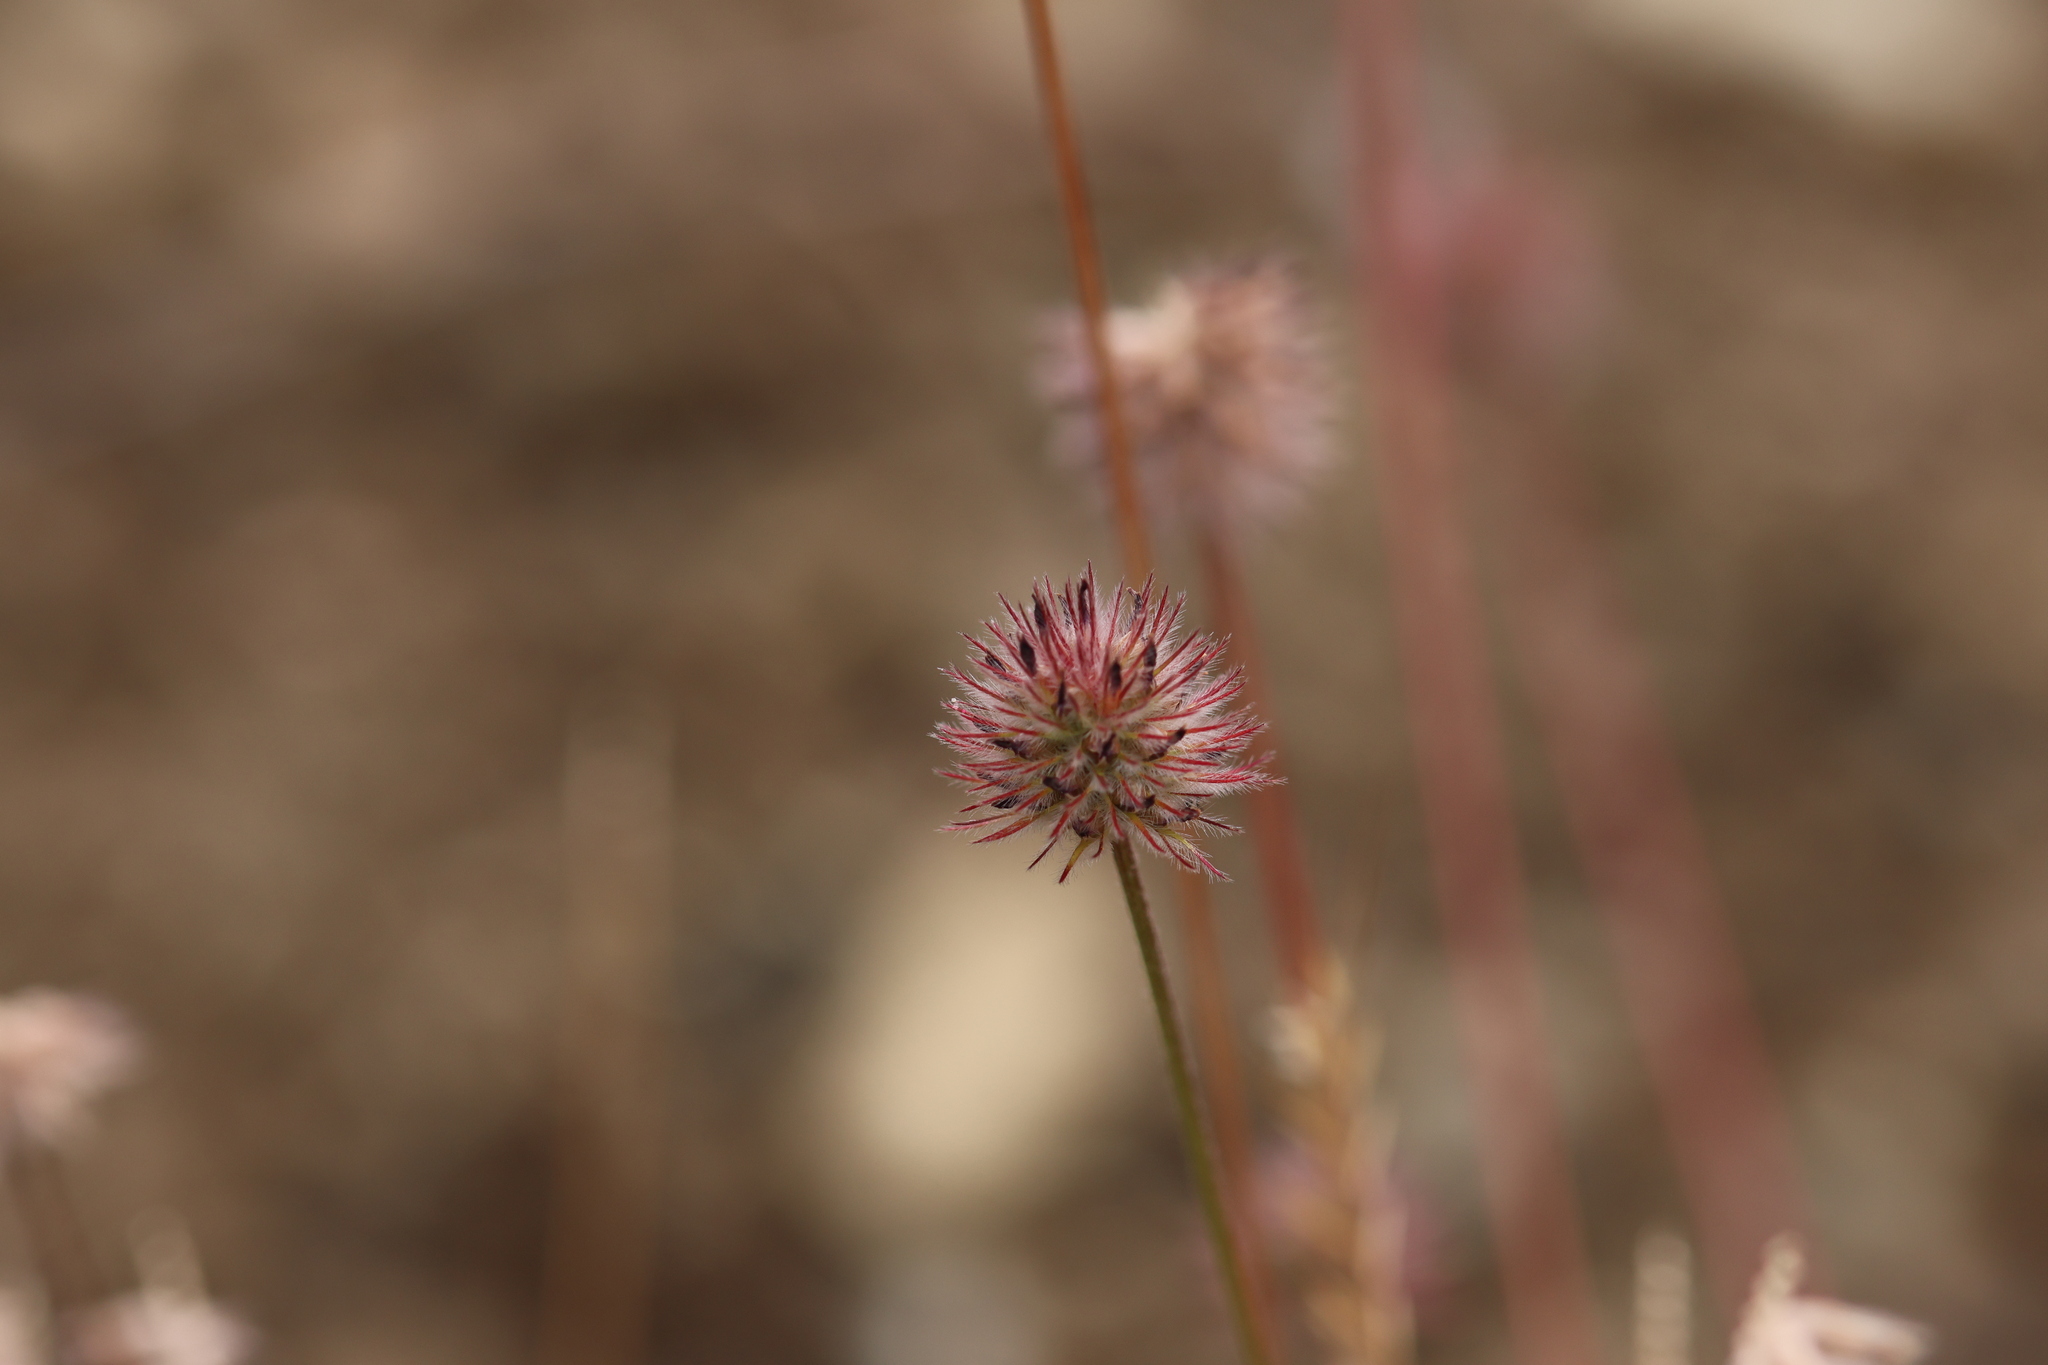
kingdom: Plantae
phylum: Tracheophyta
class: Magnoliopsida
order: Fabales
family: Fabaceae
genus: Trifolium
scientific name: Trifolium albopurpureum
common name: Rancheria clover
